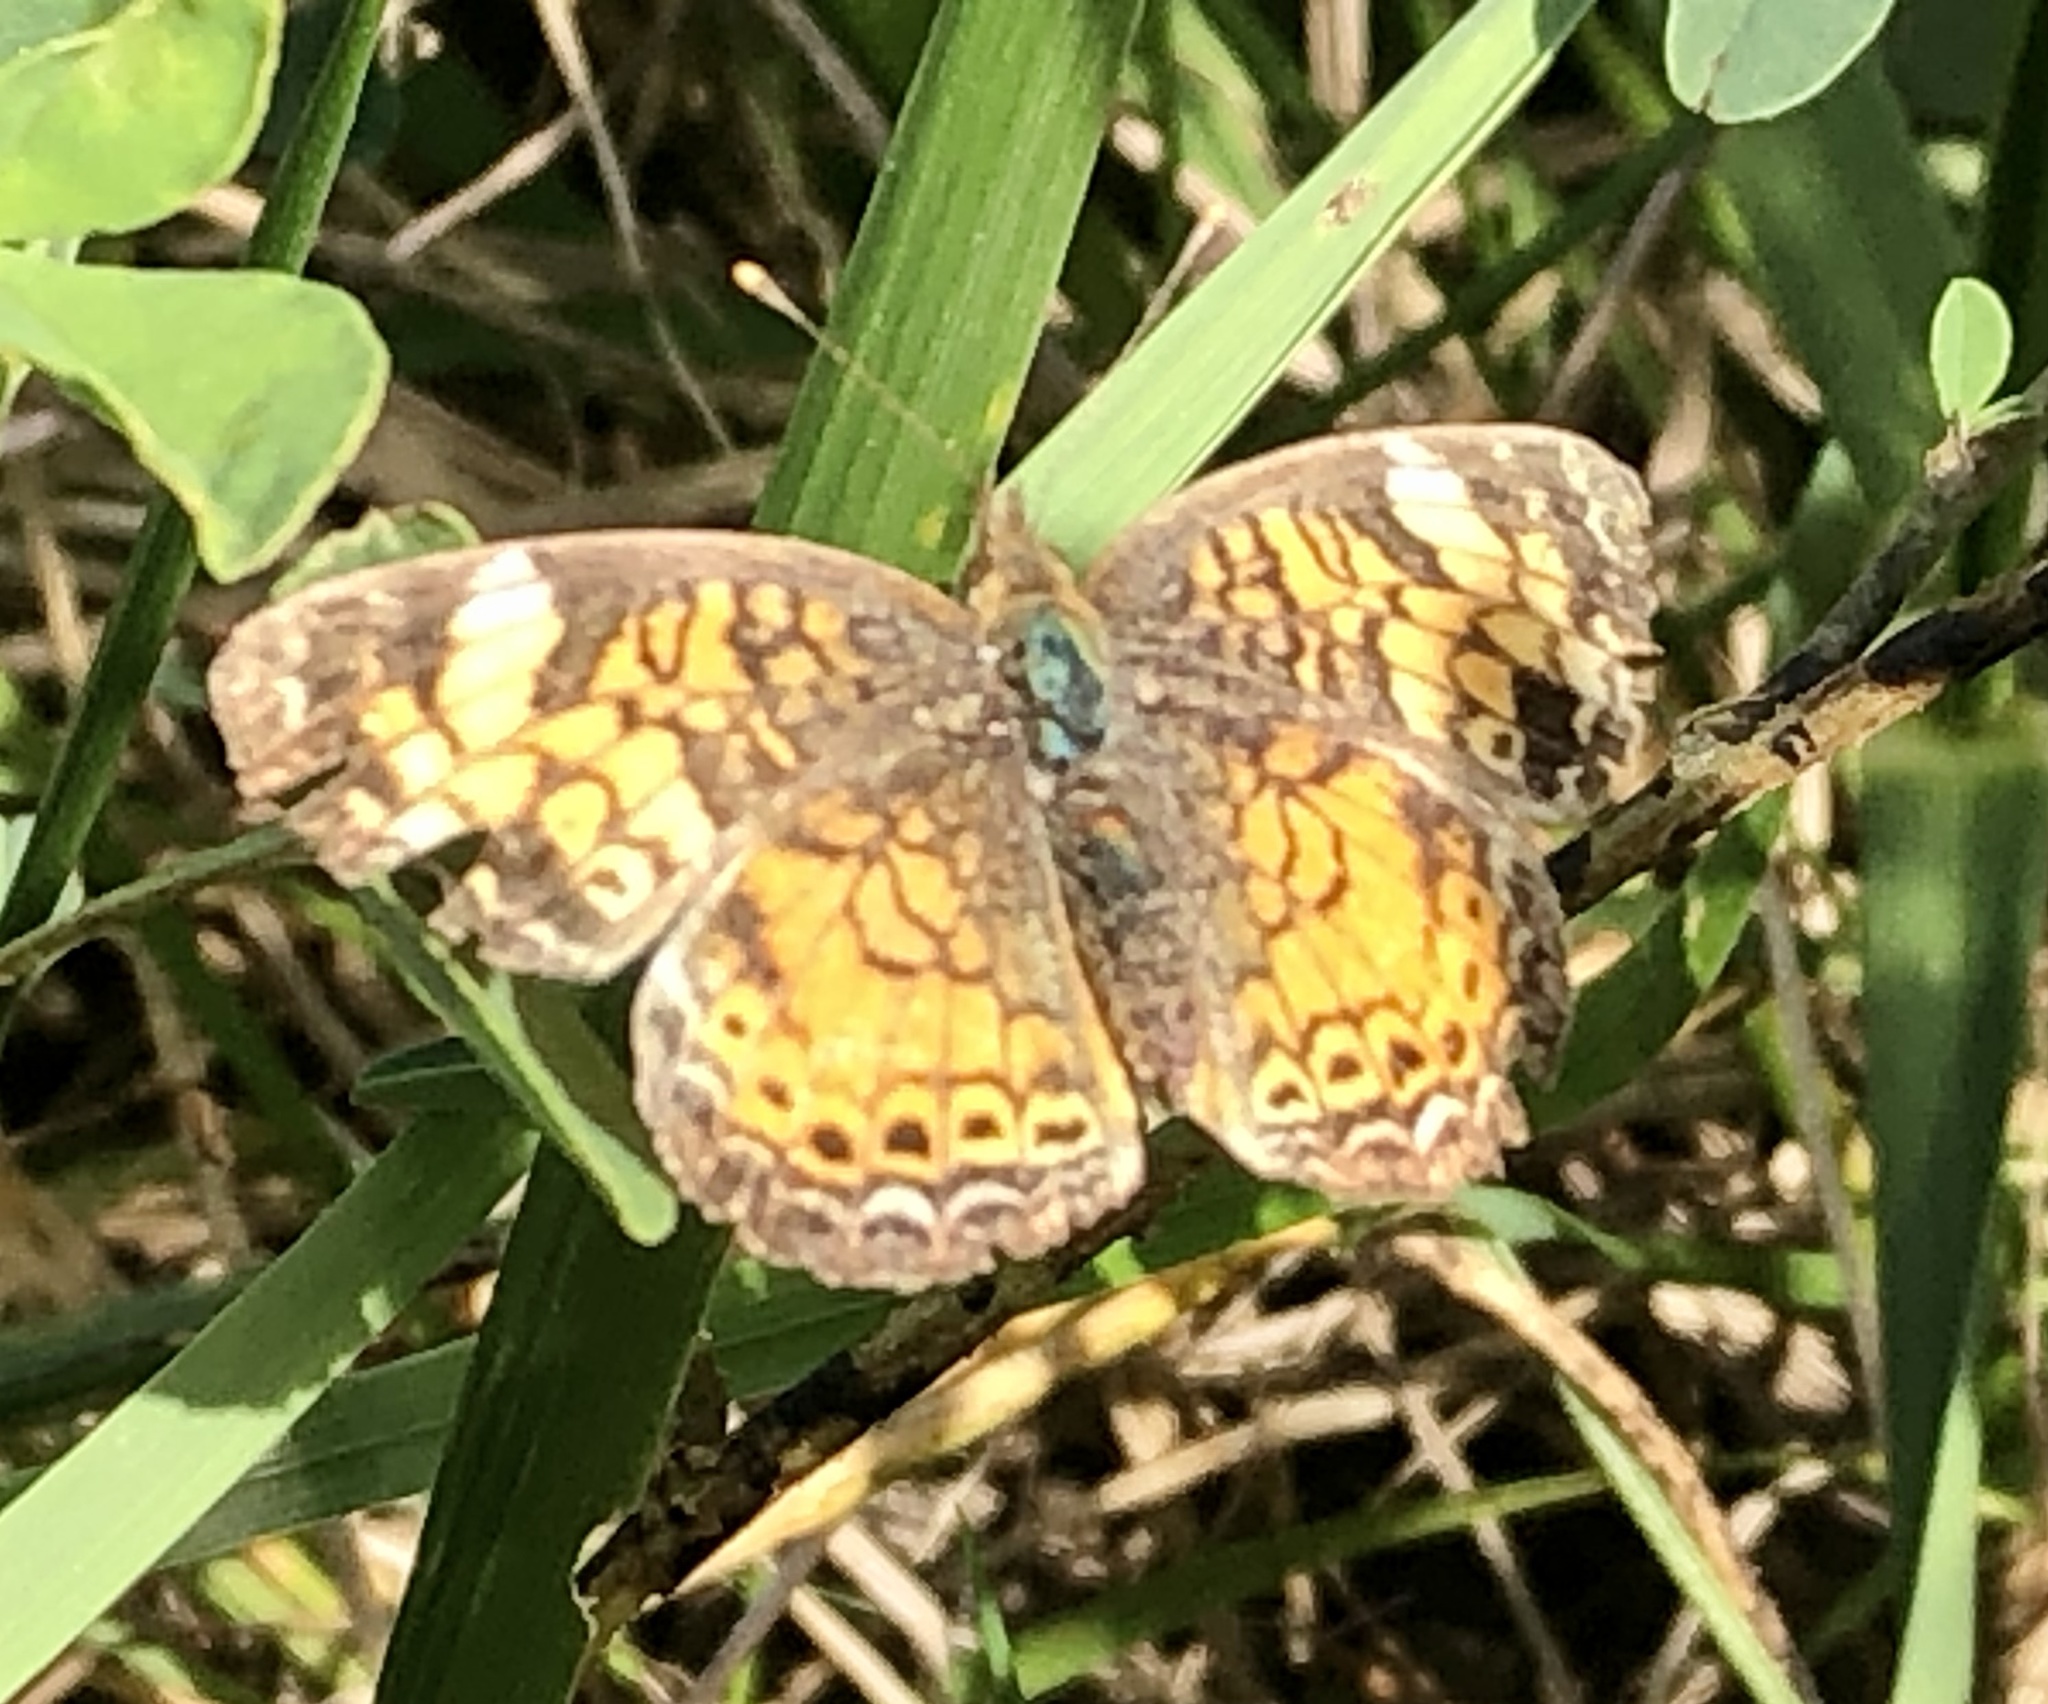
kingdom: Animalia
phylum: Arthropoda
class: Insecta
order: Lepidoptera
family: Nymphalidae
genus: Phyciodes
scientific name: Phyciodes tharos
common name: Pearl crescent
